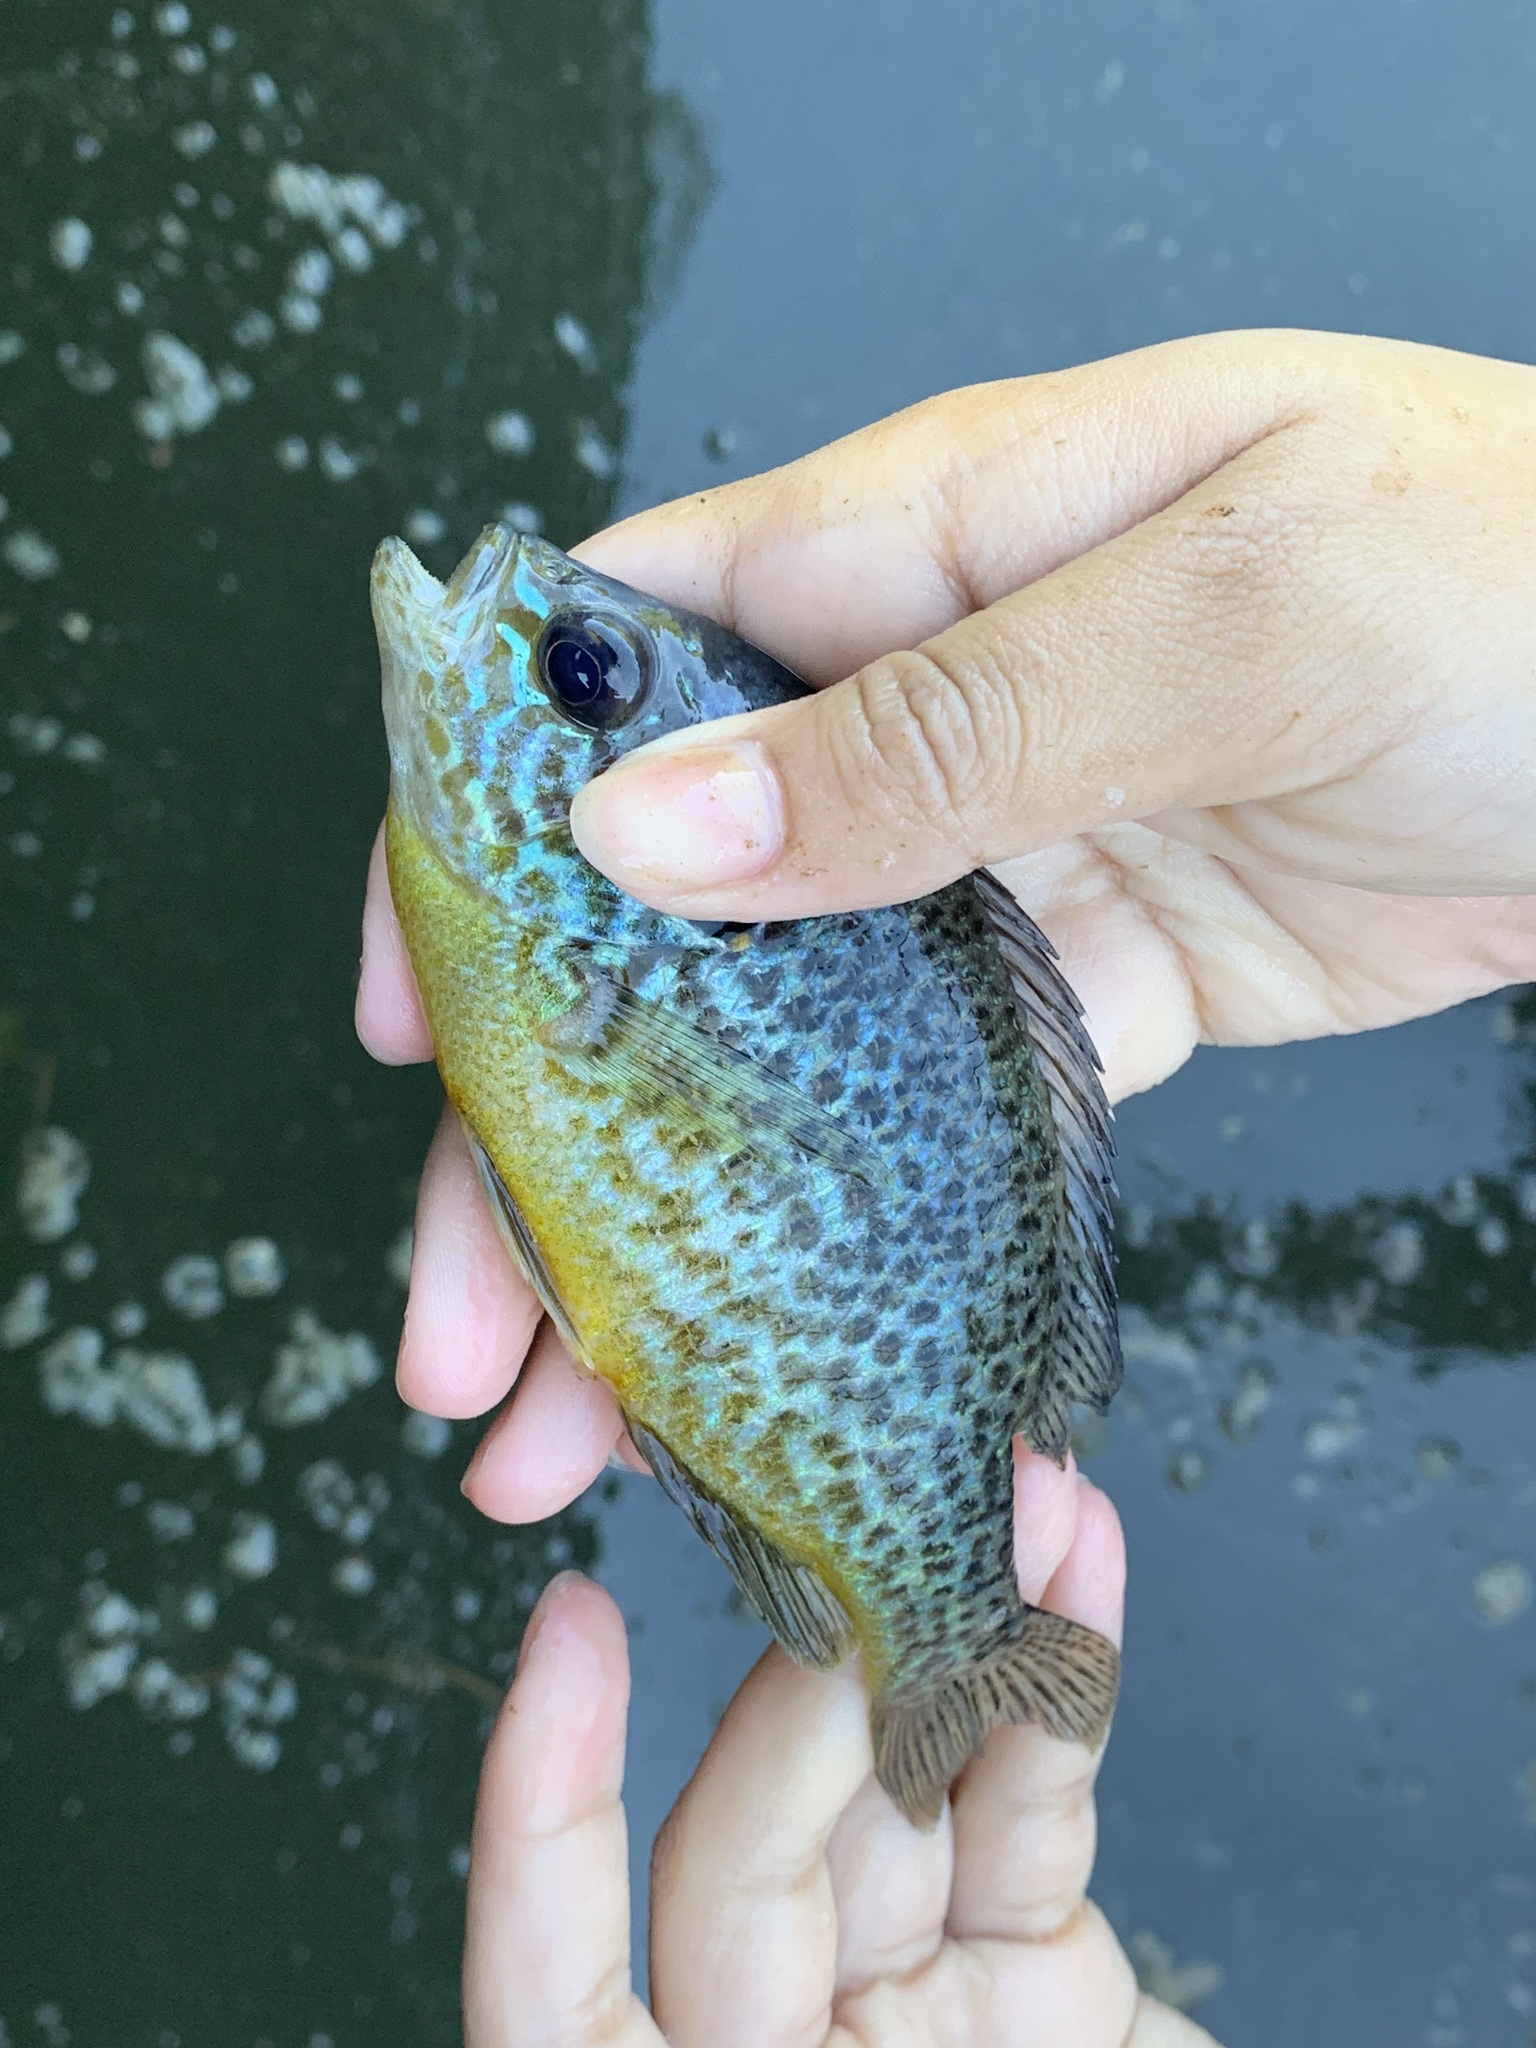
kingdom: Animalia
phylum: Chordata
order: Perciformes
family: Centrarchidae
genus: Lepomis
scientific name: Lepomis gibbosus
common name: Pumpkinseed
